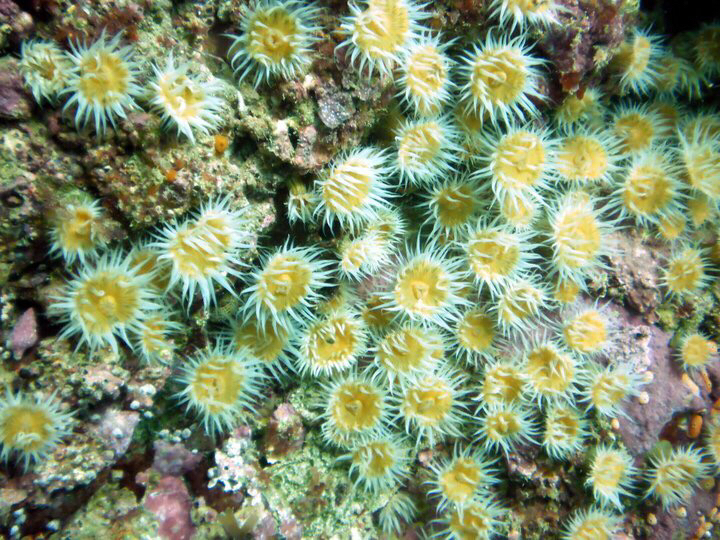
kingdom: Animalia
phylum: Cnidaria
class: Anthozoa
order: Actiniaria
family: Sagartiidae
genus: Anthothoe
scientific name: Anthothoe albocincta
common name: Orange striped anemone
